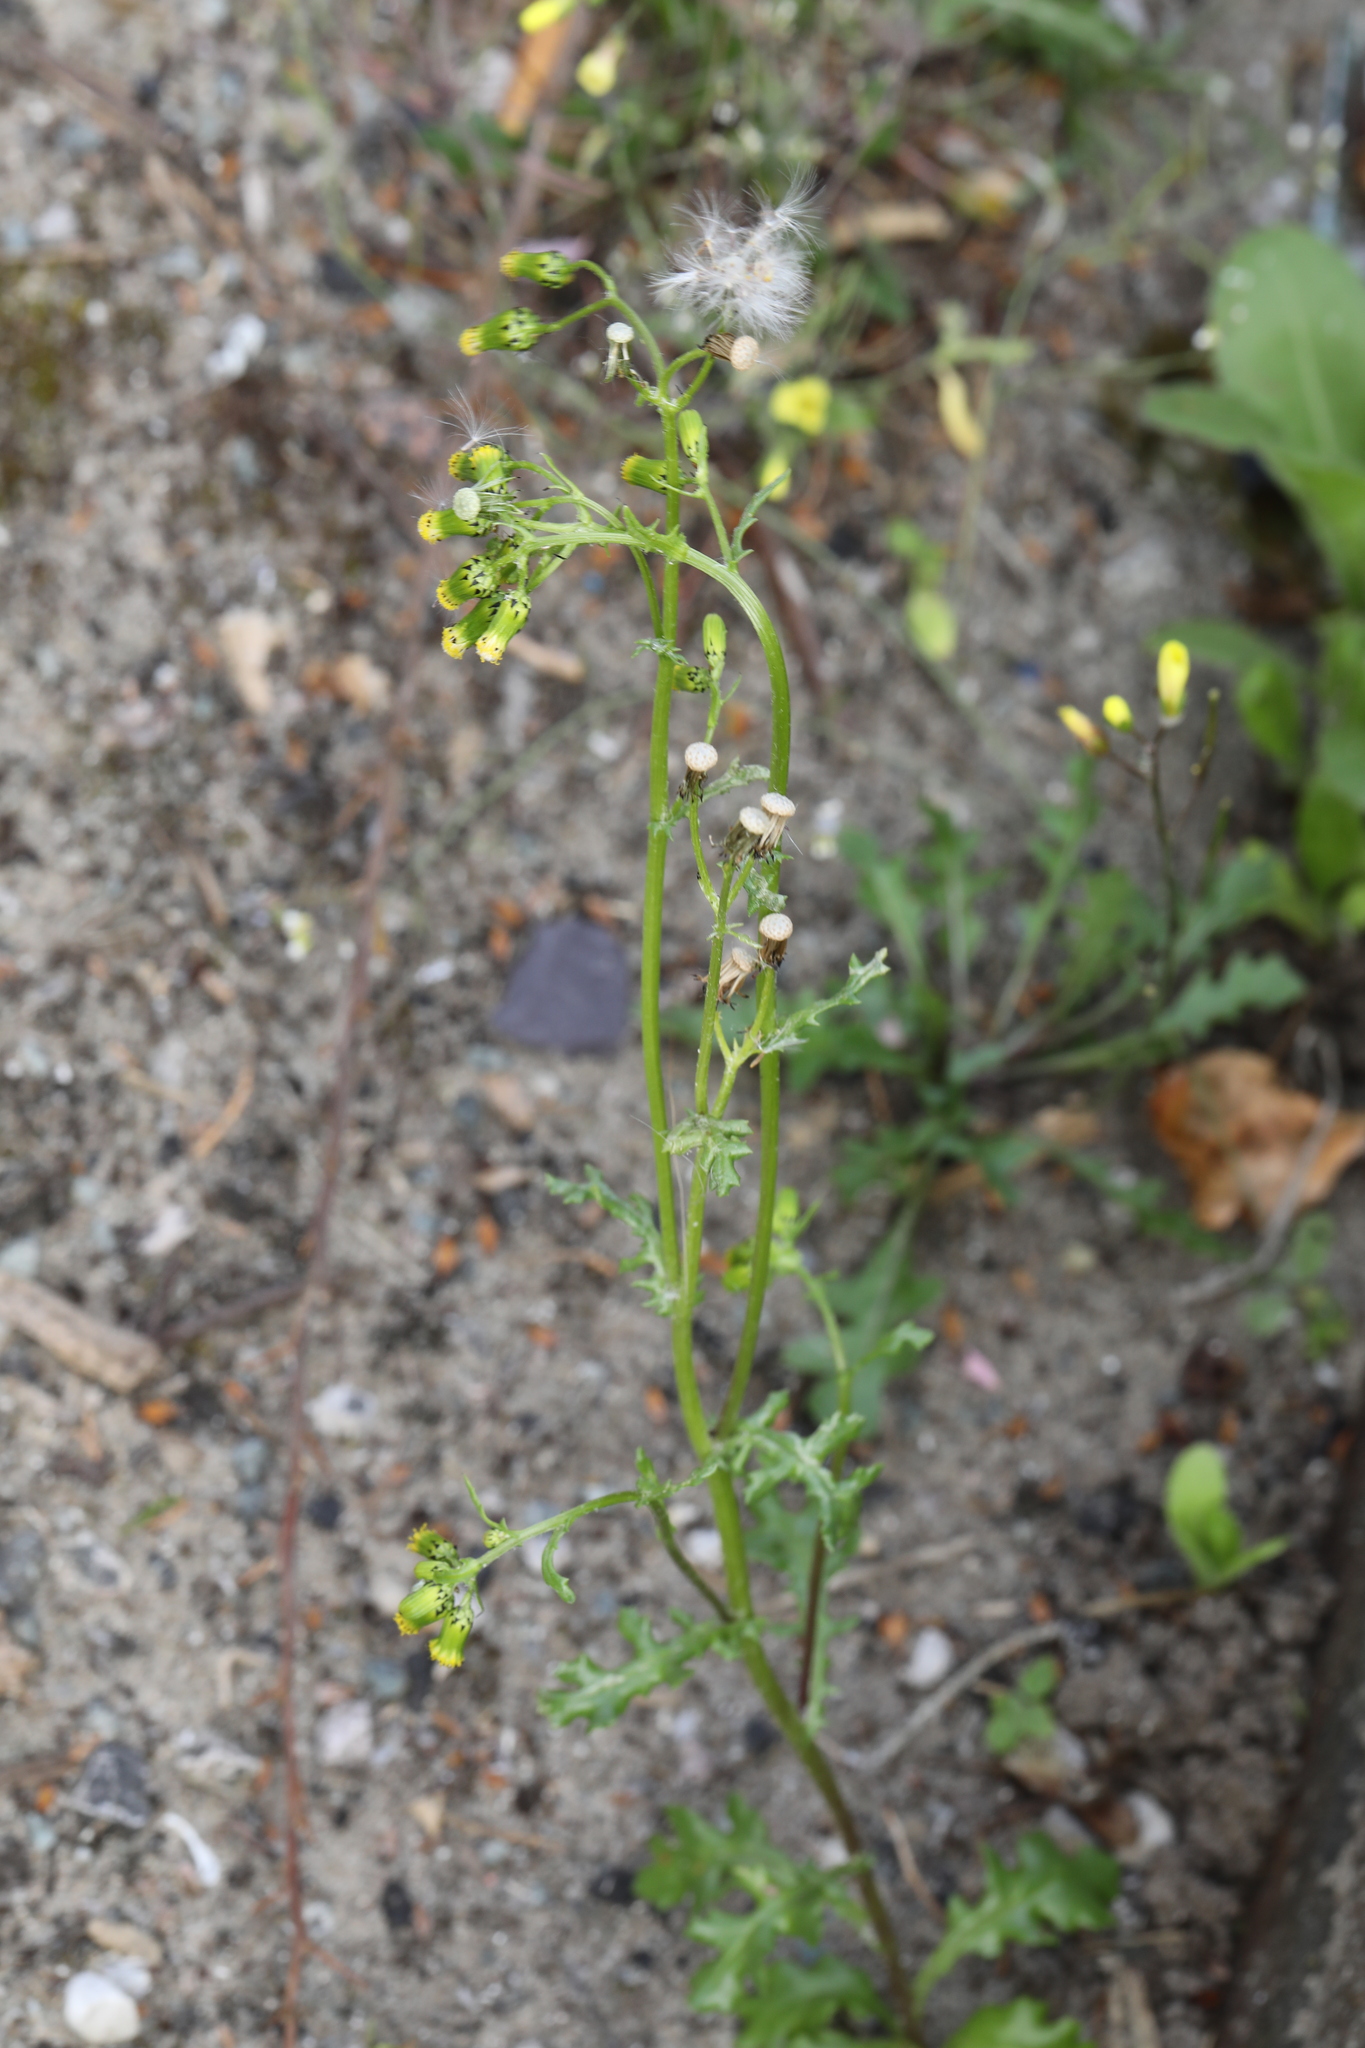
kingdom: Plantae
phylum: Tracheophyta
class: Magnoliopsida
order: Asterales
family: Asteraceae
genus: Senecio
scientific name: Senecio vulgaris
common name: Old-man-in-the-spring
